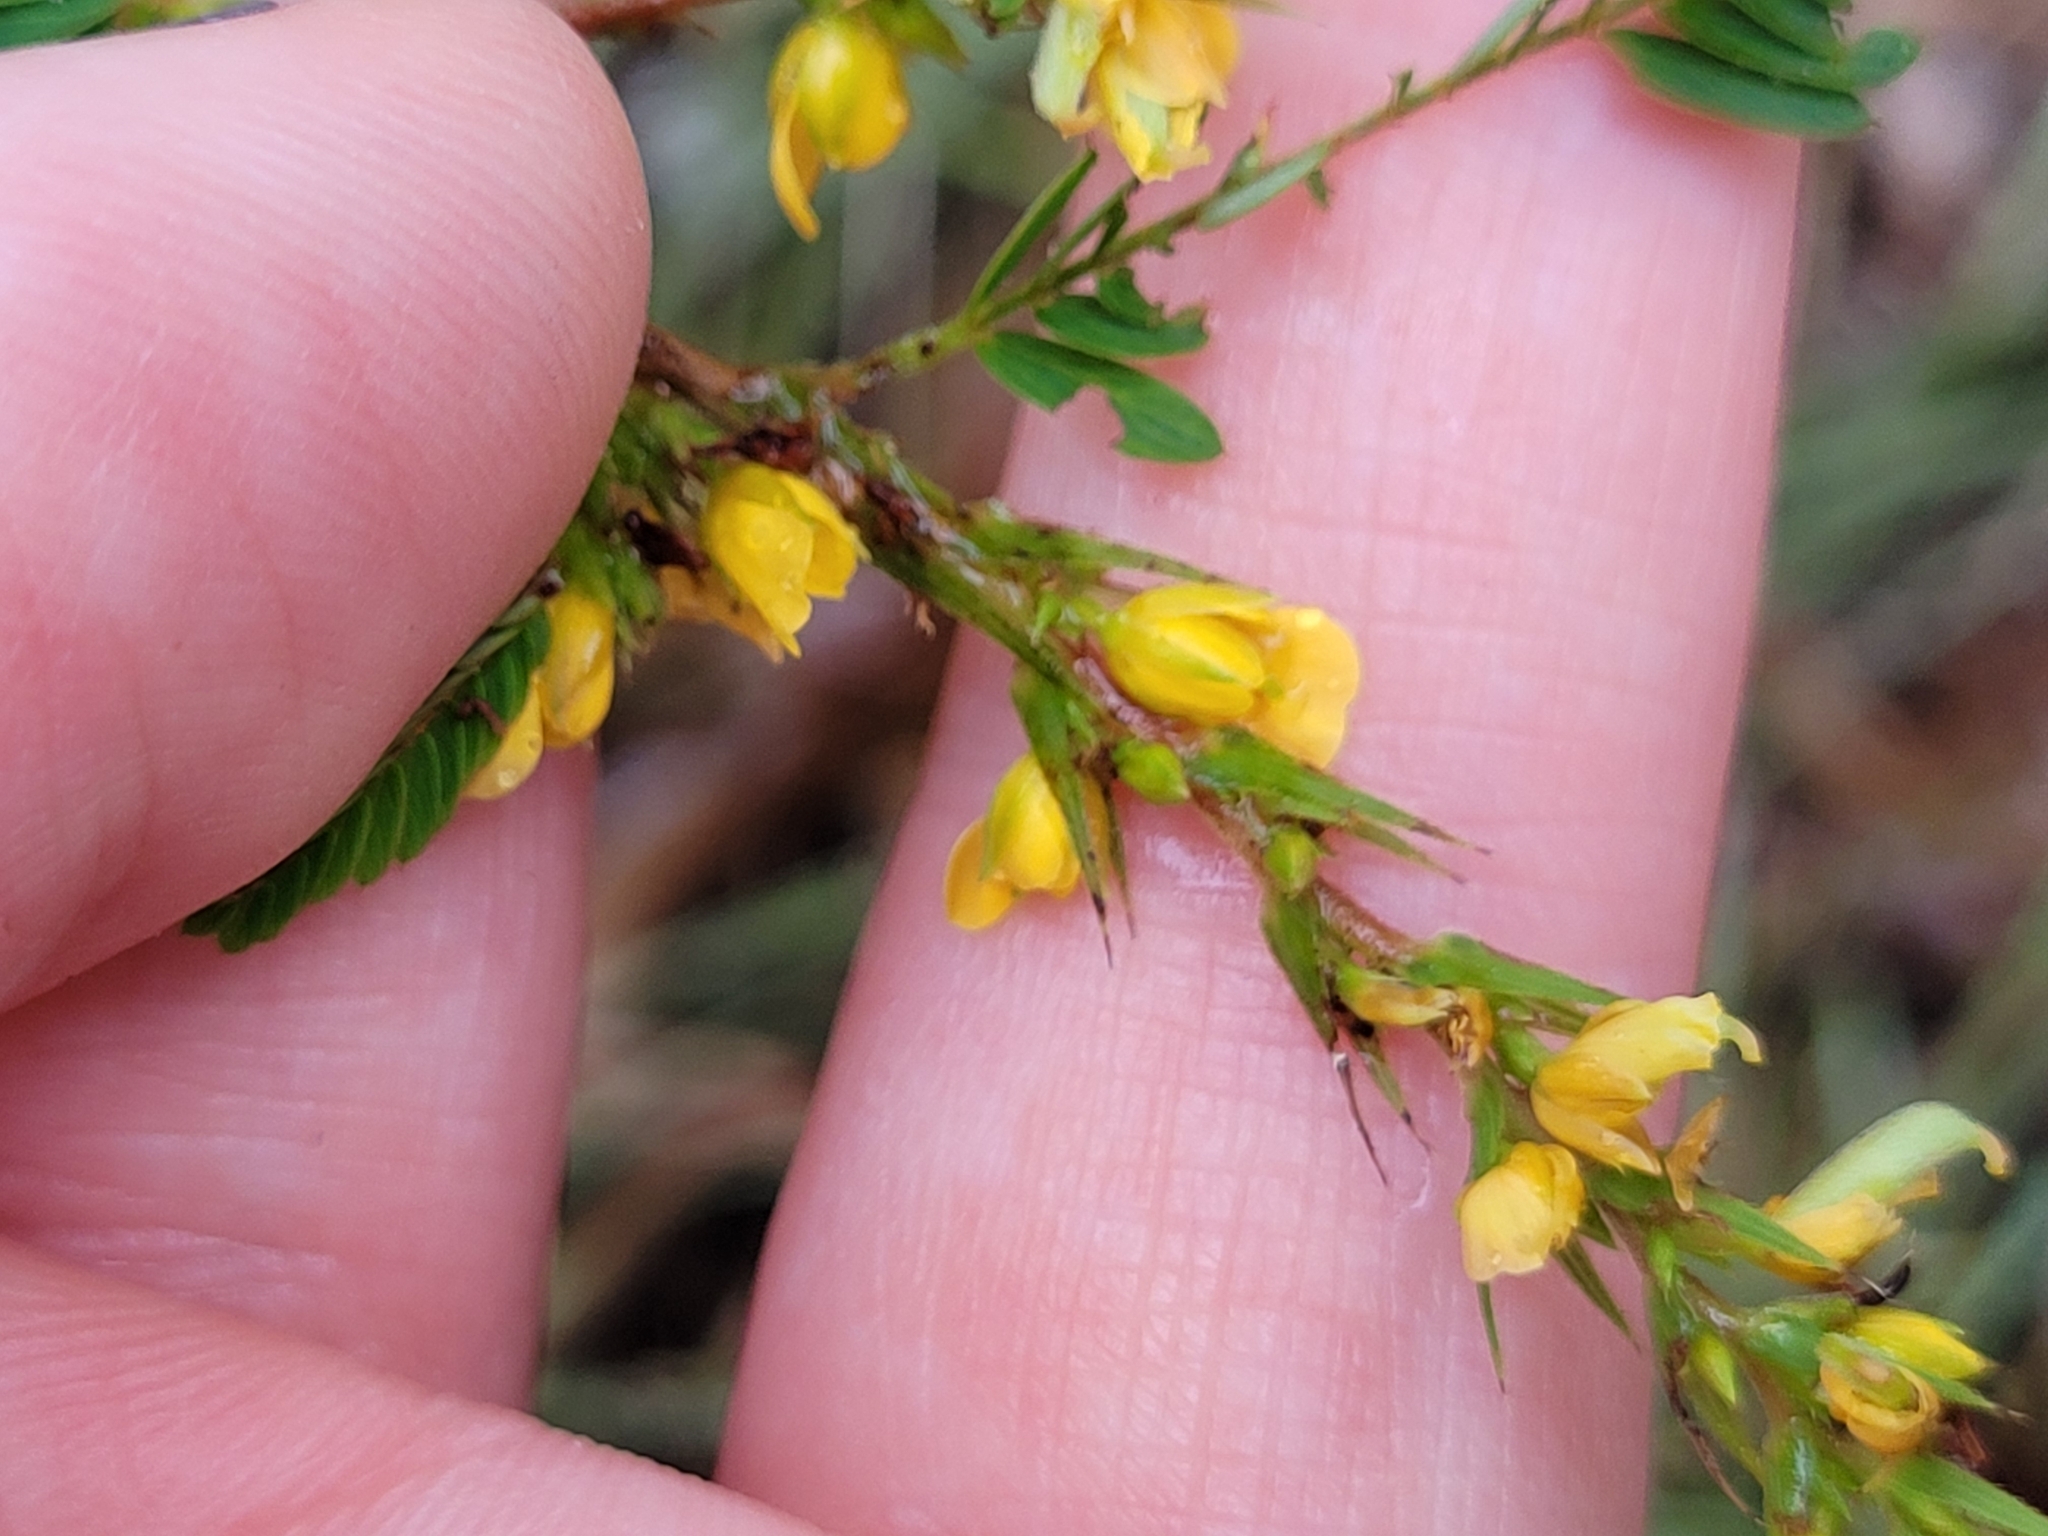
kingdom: Plantae
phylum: Tracheophyta
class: Magnoliopsida
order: Fabales
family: Fabaceae
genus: Chamaecrista
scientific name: Chamaecrista nictitans
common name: Sensitive cassia
